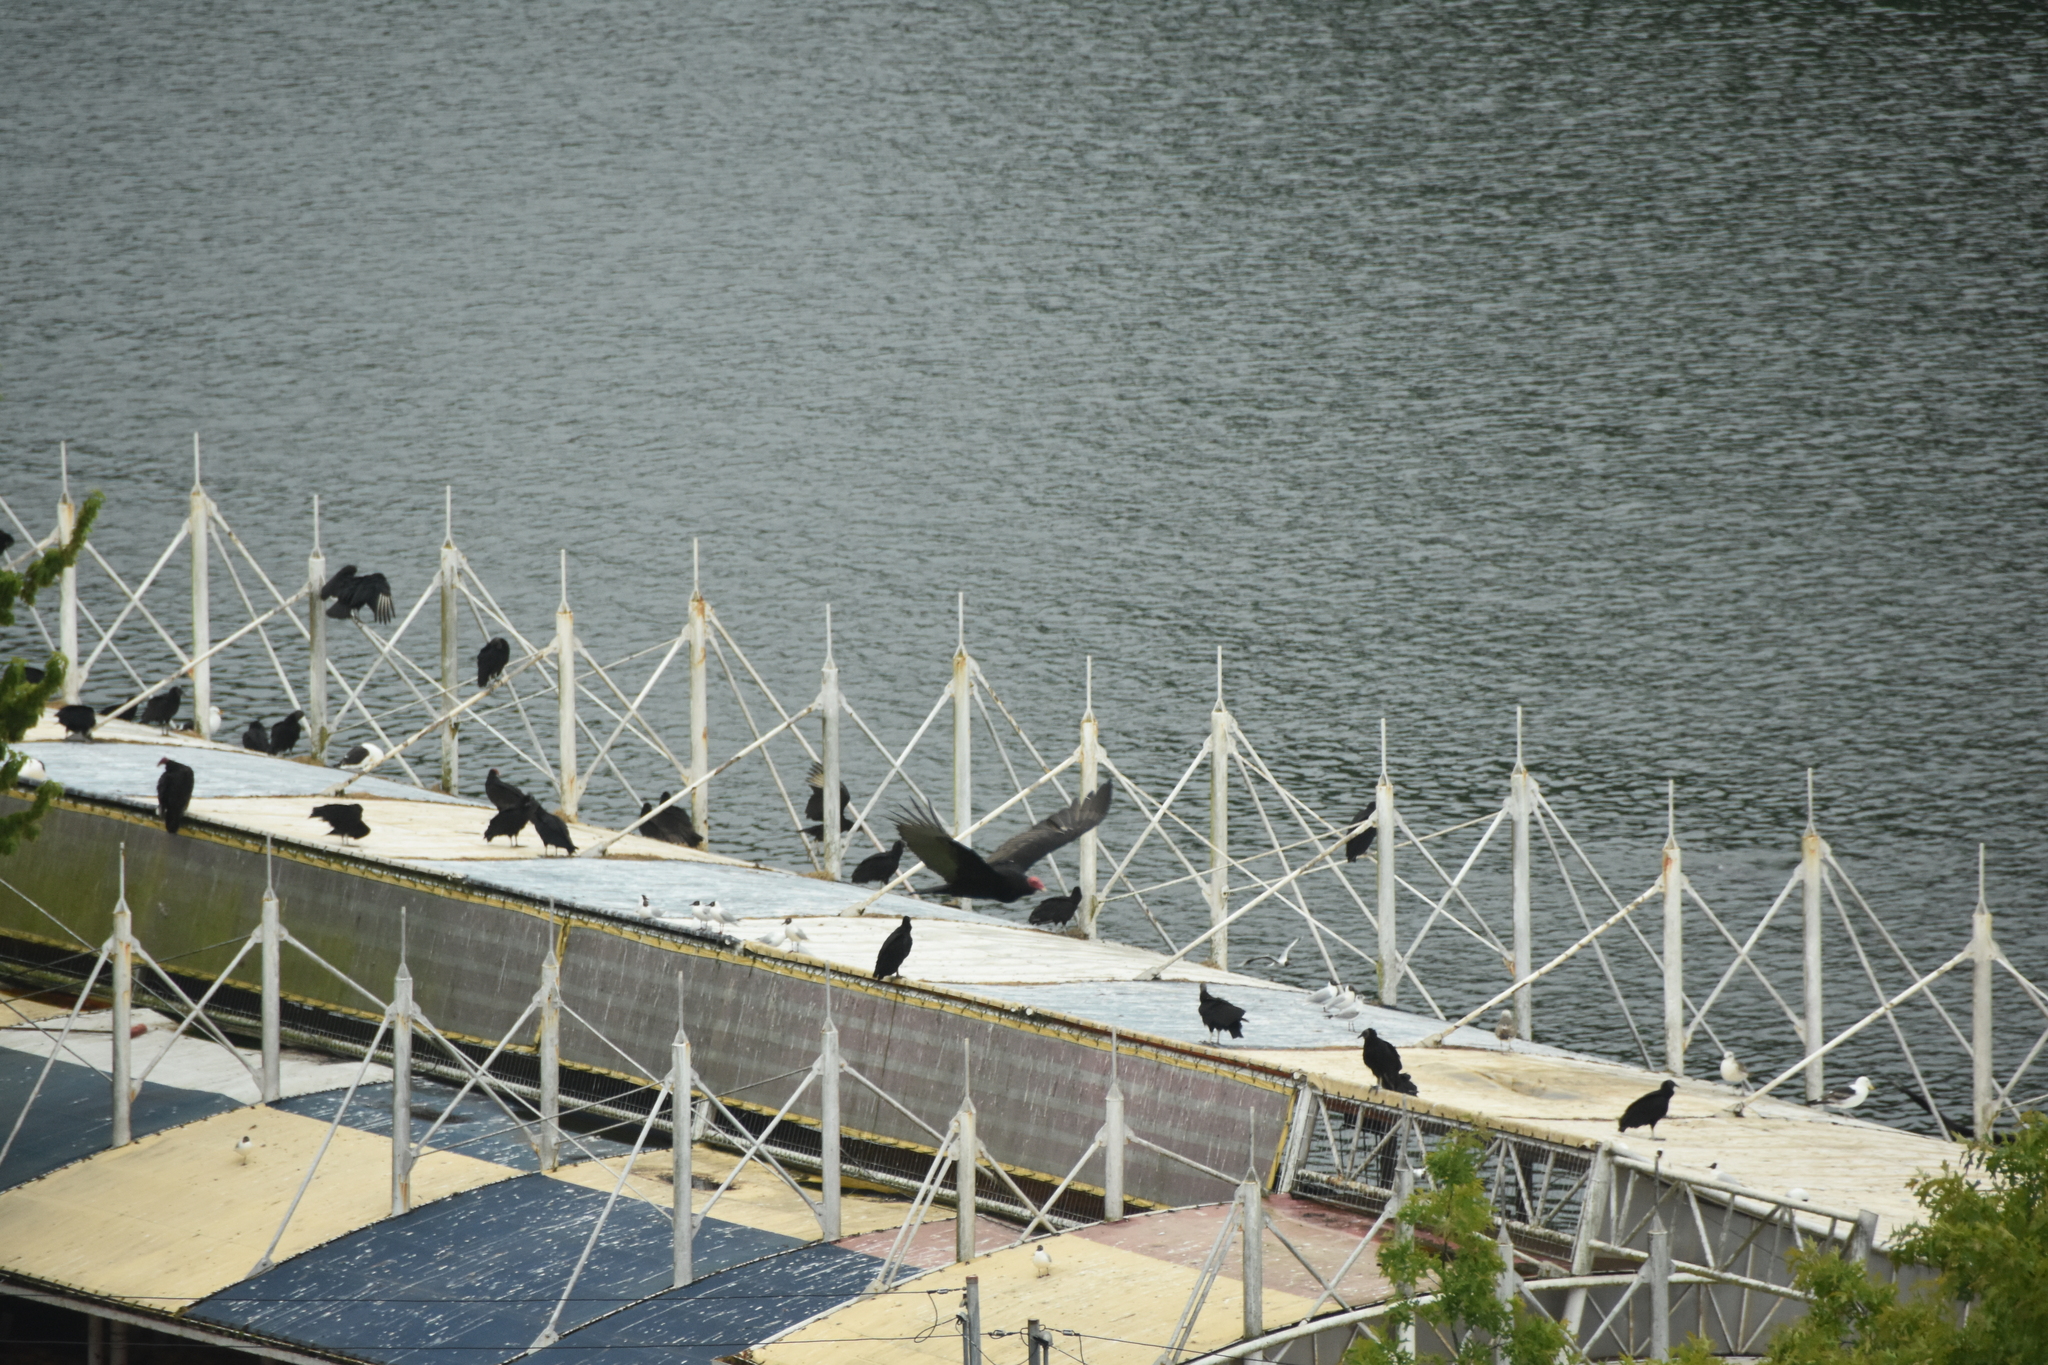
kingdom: Animalia
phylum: Chordata
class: Aves
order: Accipitriformes
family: Cathartidae
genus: Cathartes
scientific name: Cathartes aura
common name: Turkey vulture
